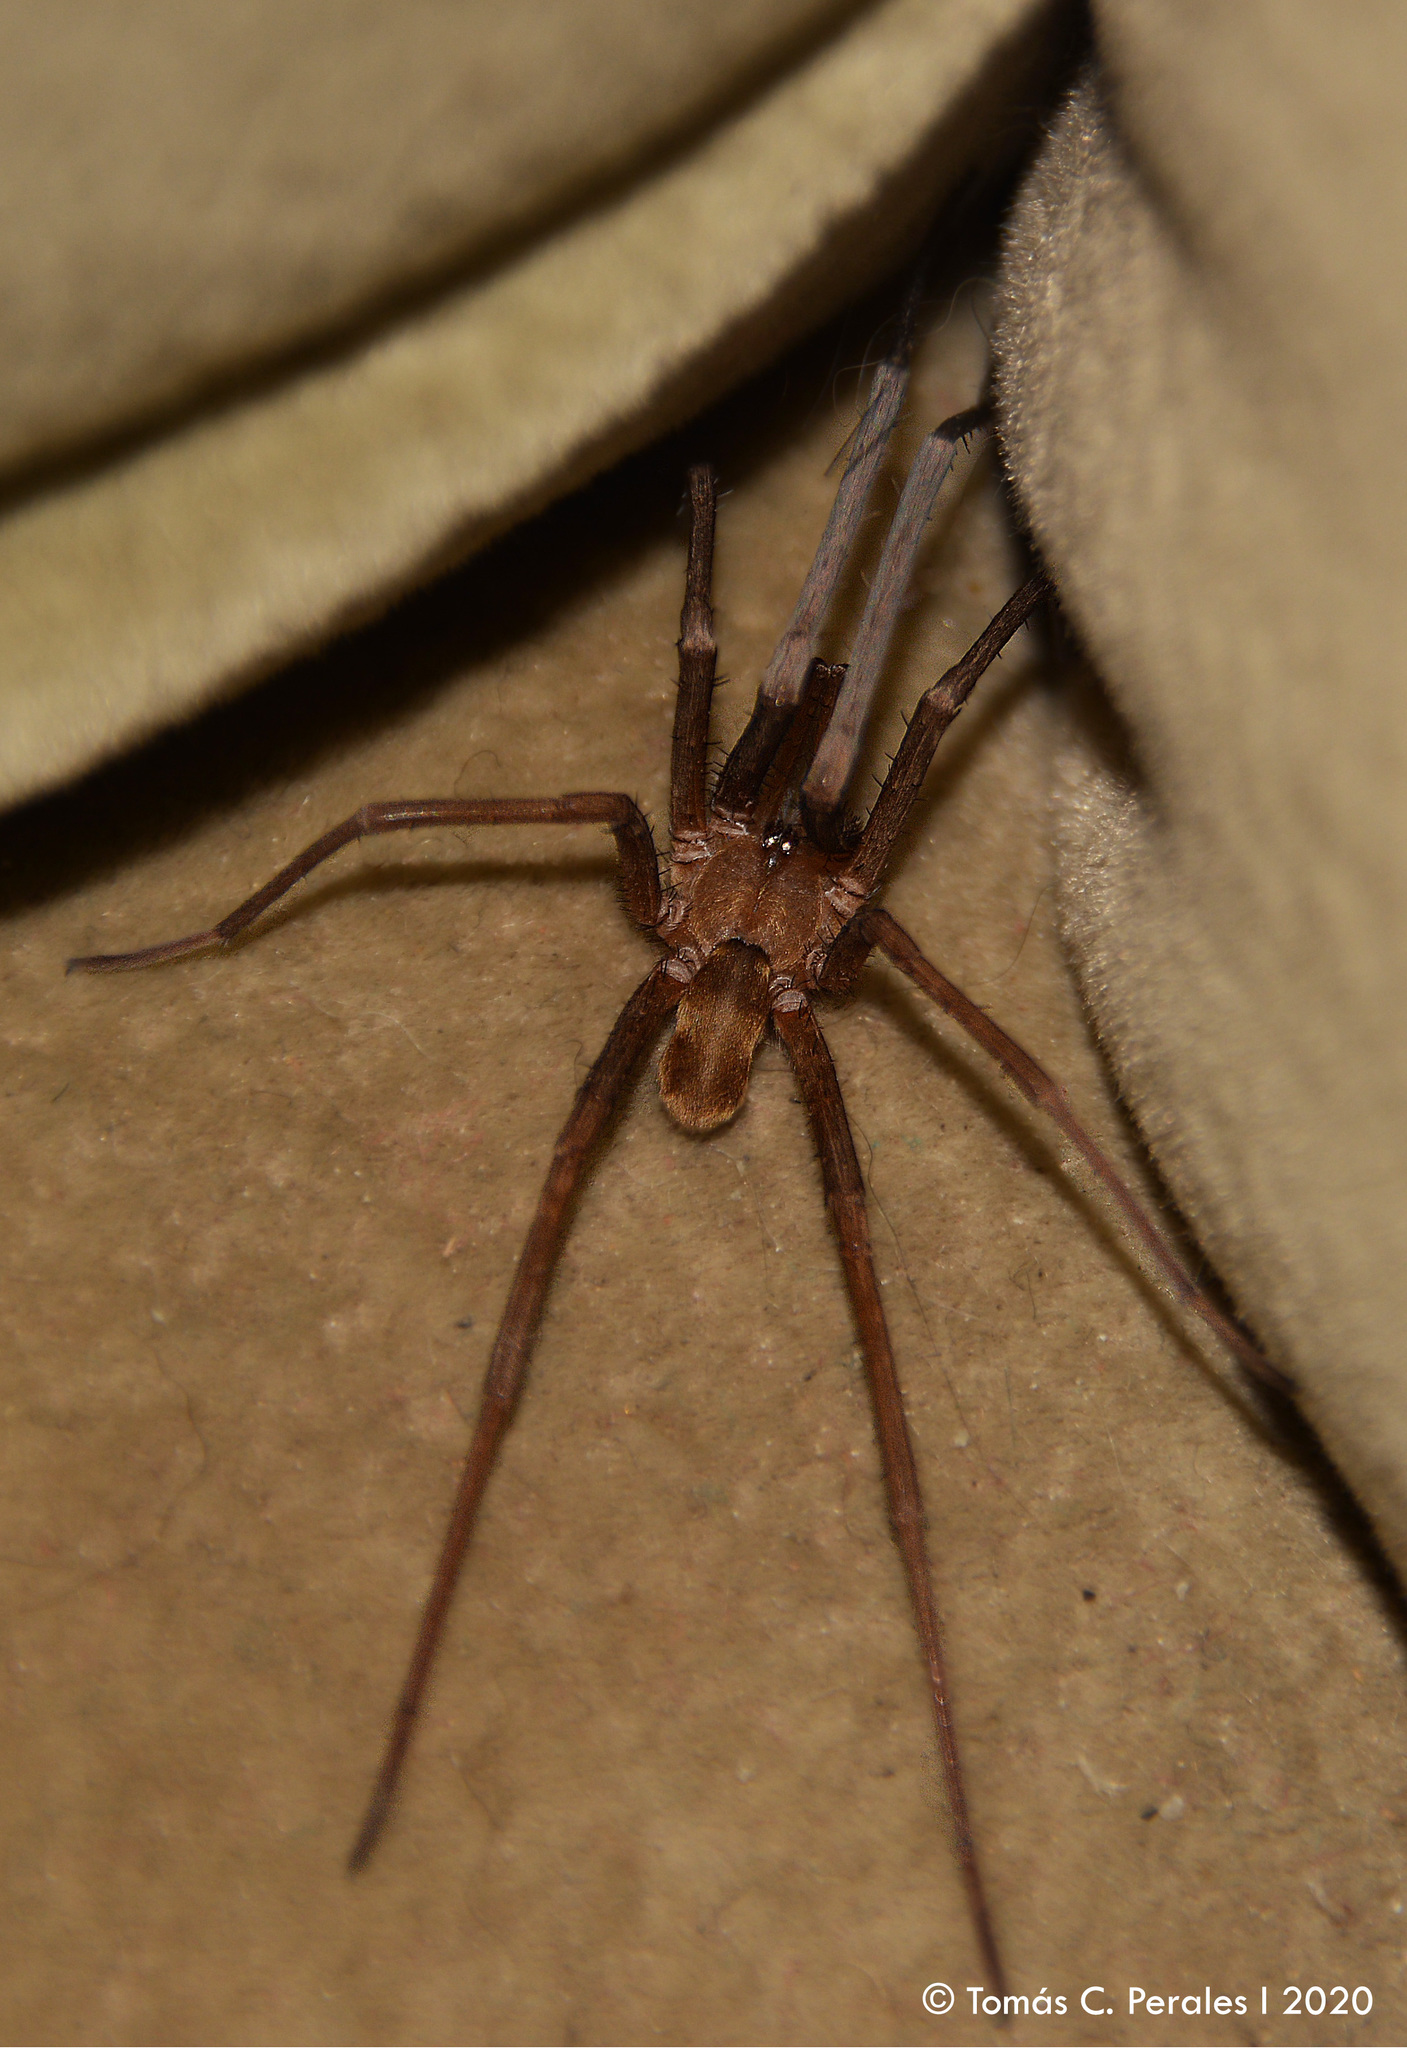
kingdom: Animalia
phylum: Arthropoda
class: Arachnida
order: Araneae
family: Filistatidae
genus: Kukulcania
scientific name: Kukulcania hibernalis
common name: Crevice weaver
